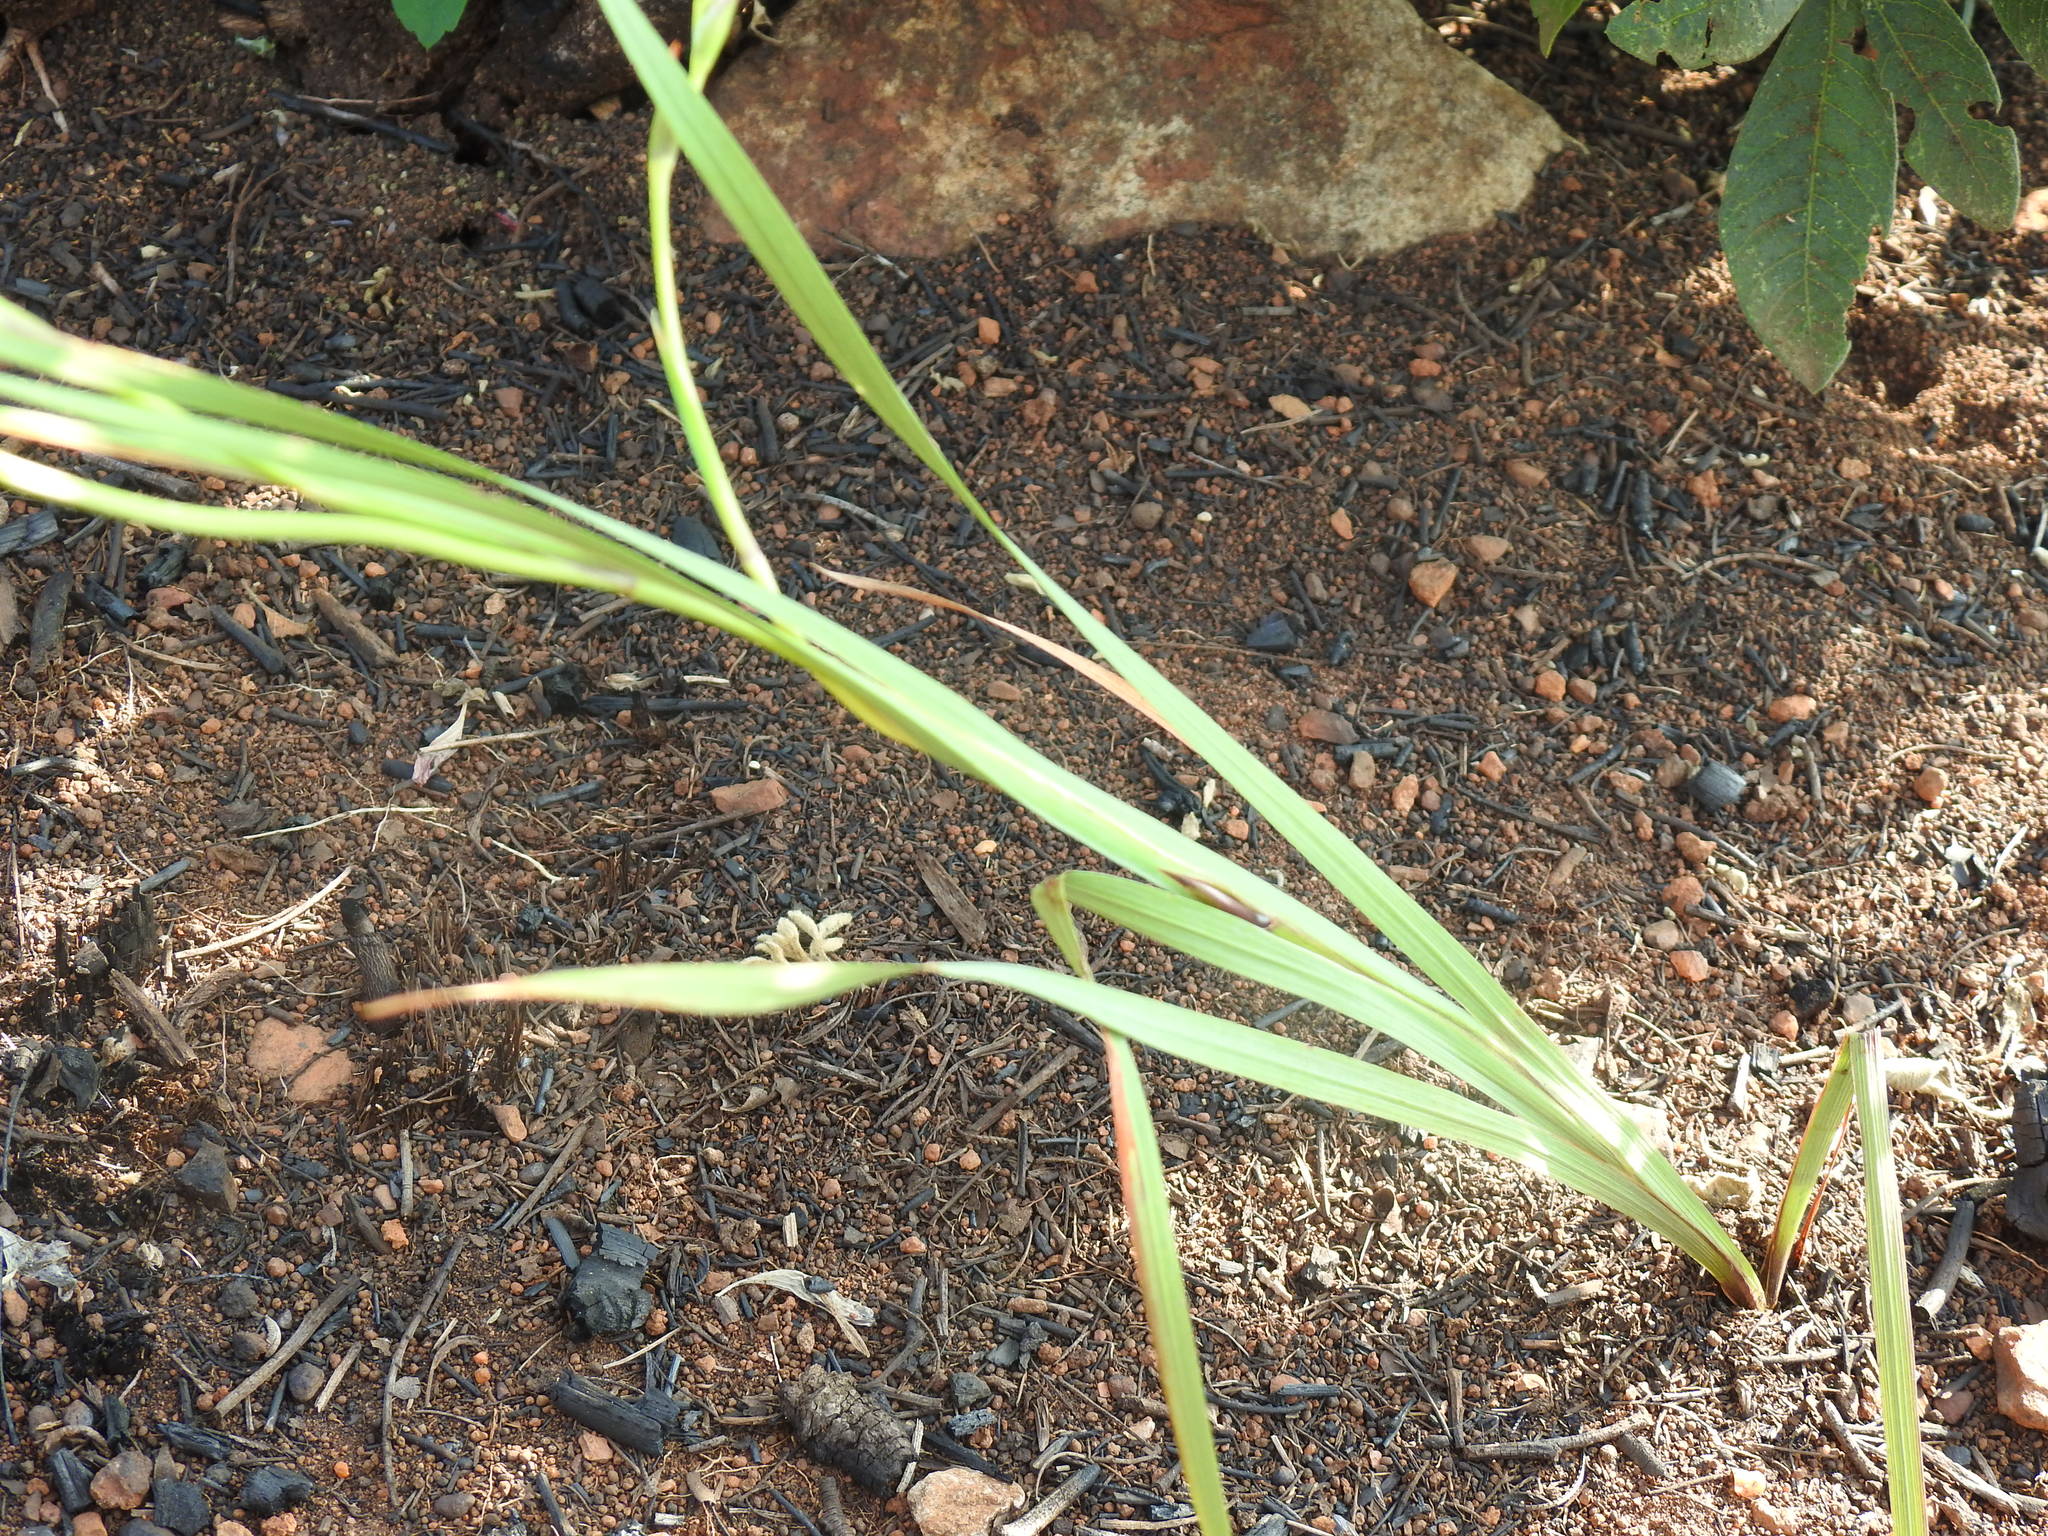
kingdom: Plantae
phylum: Tracheophyta
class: Liliopsida
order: Asparagales
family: Iridaceae
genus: Tritonia
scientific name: Tritonia nelsonii
